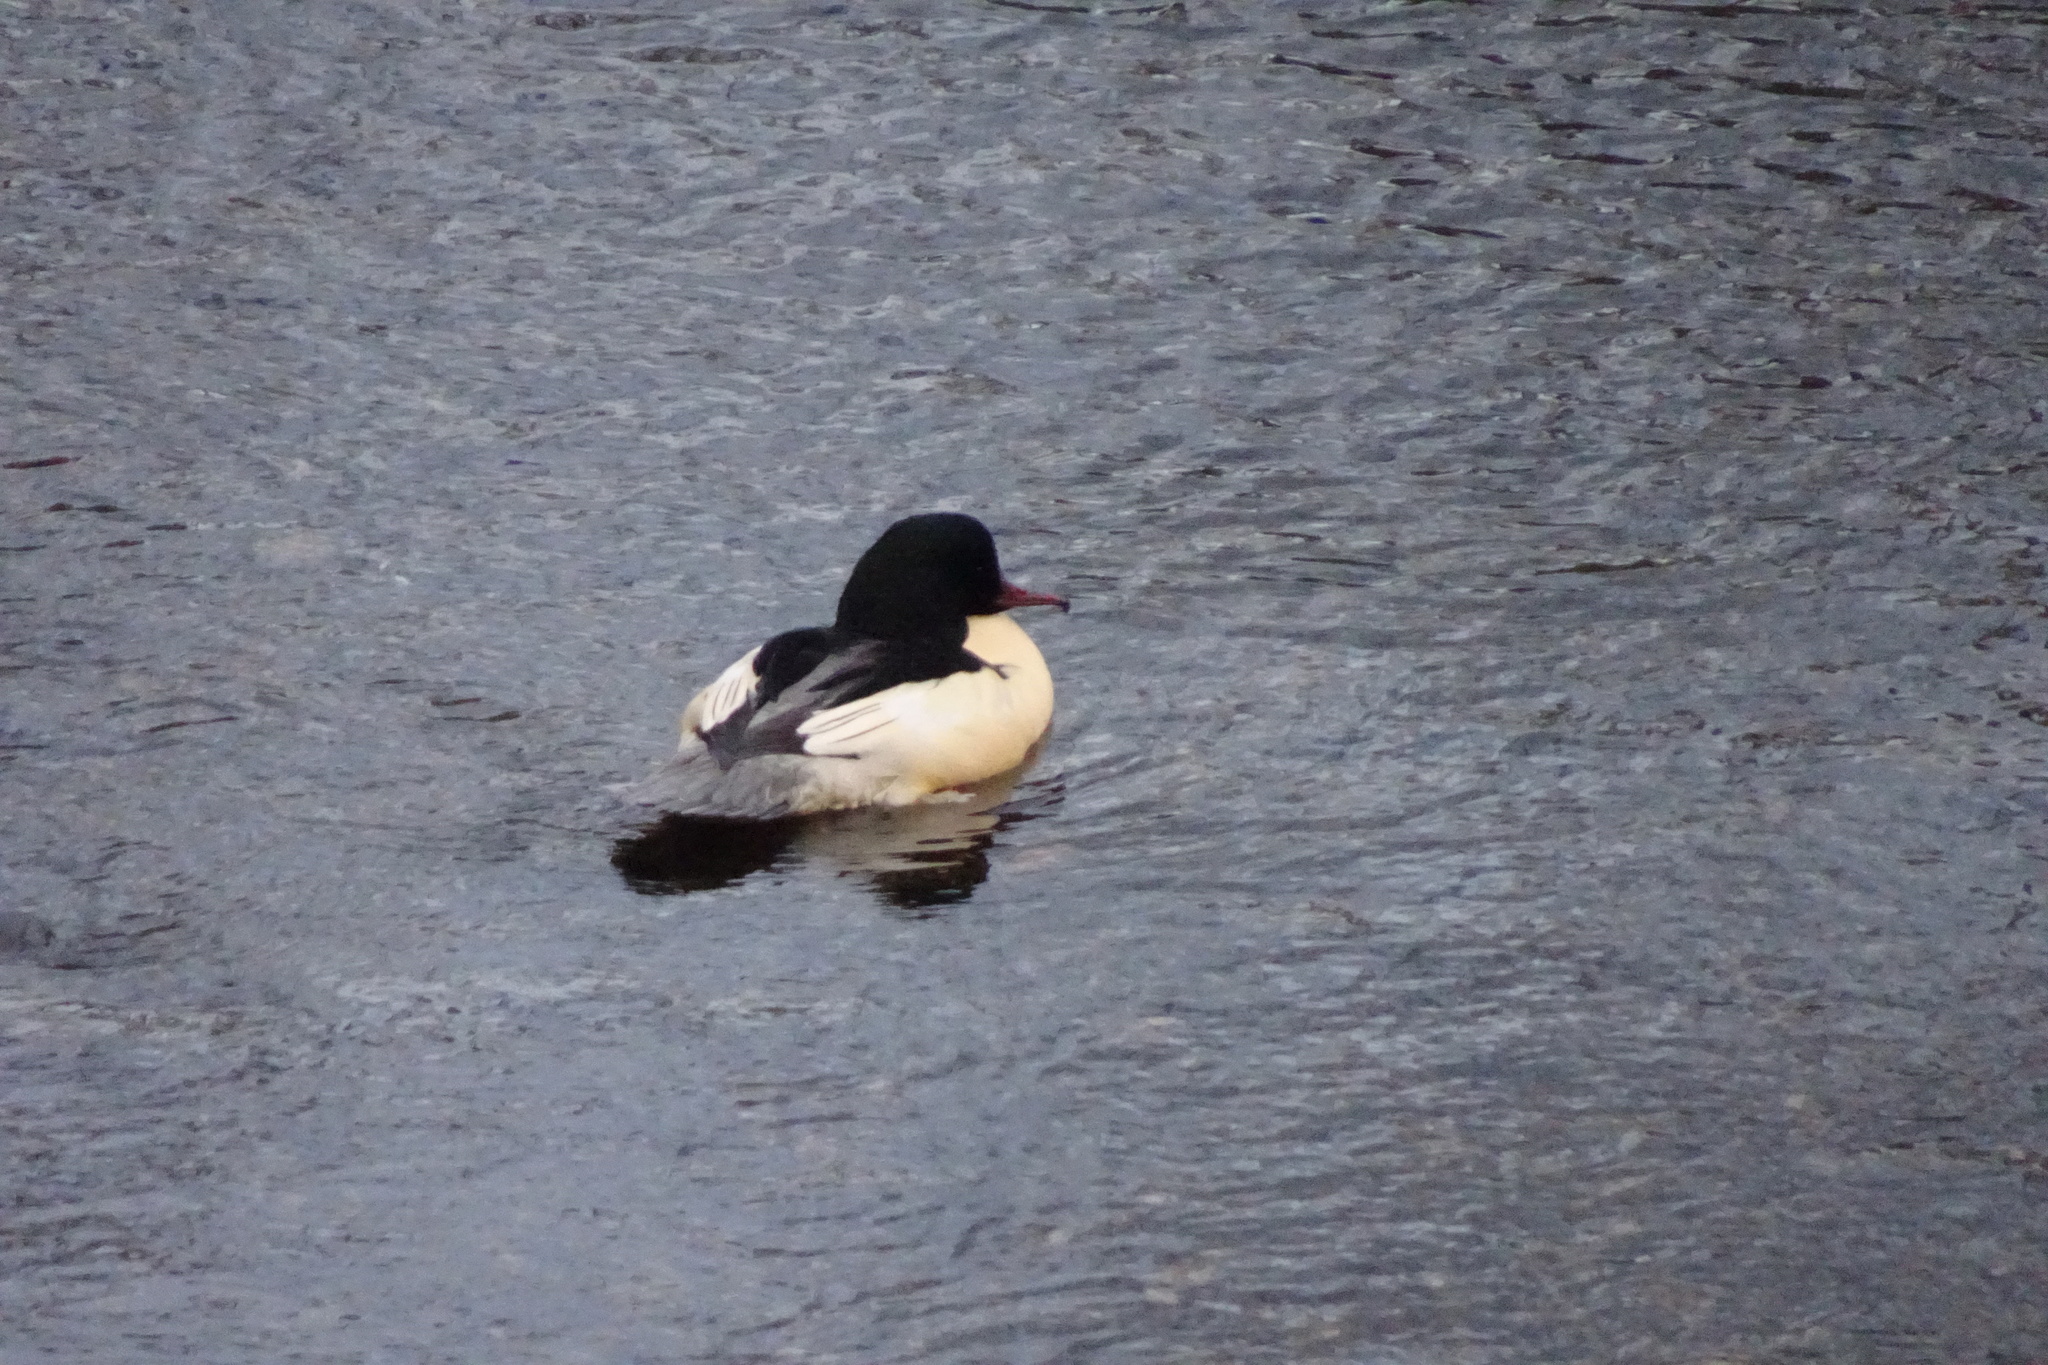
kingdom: Animalia
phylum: Chordata
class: Aves
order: Anseriformes
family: Anatidae
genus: Mergus
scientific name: Mergus merganser
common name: Common merganser
